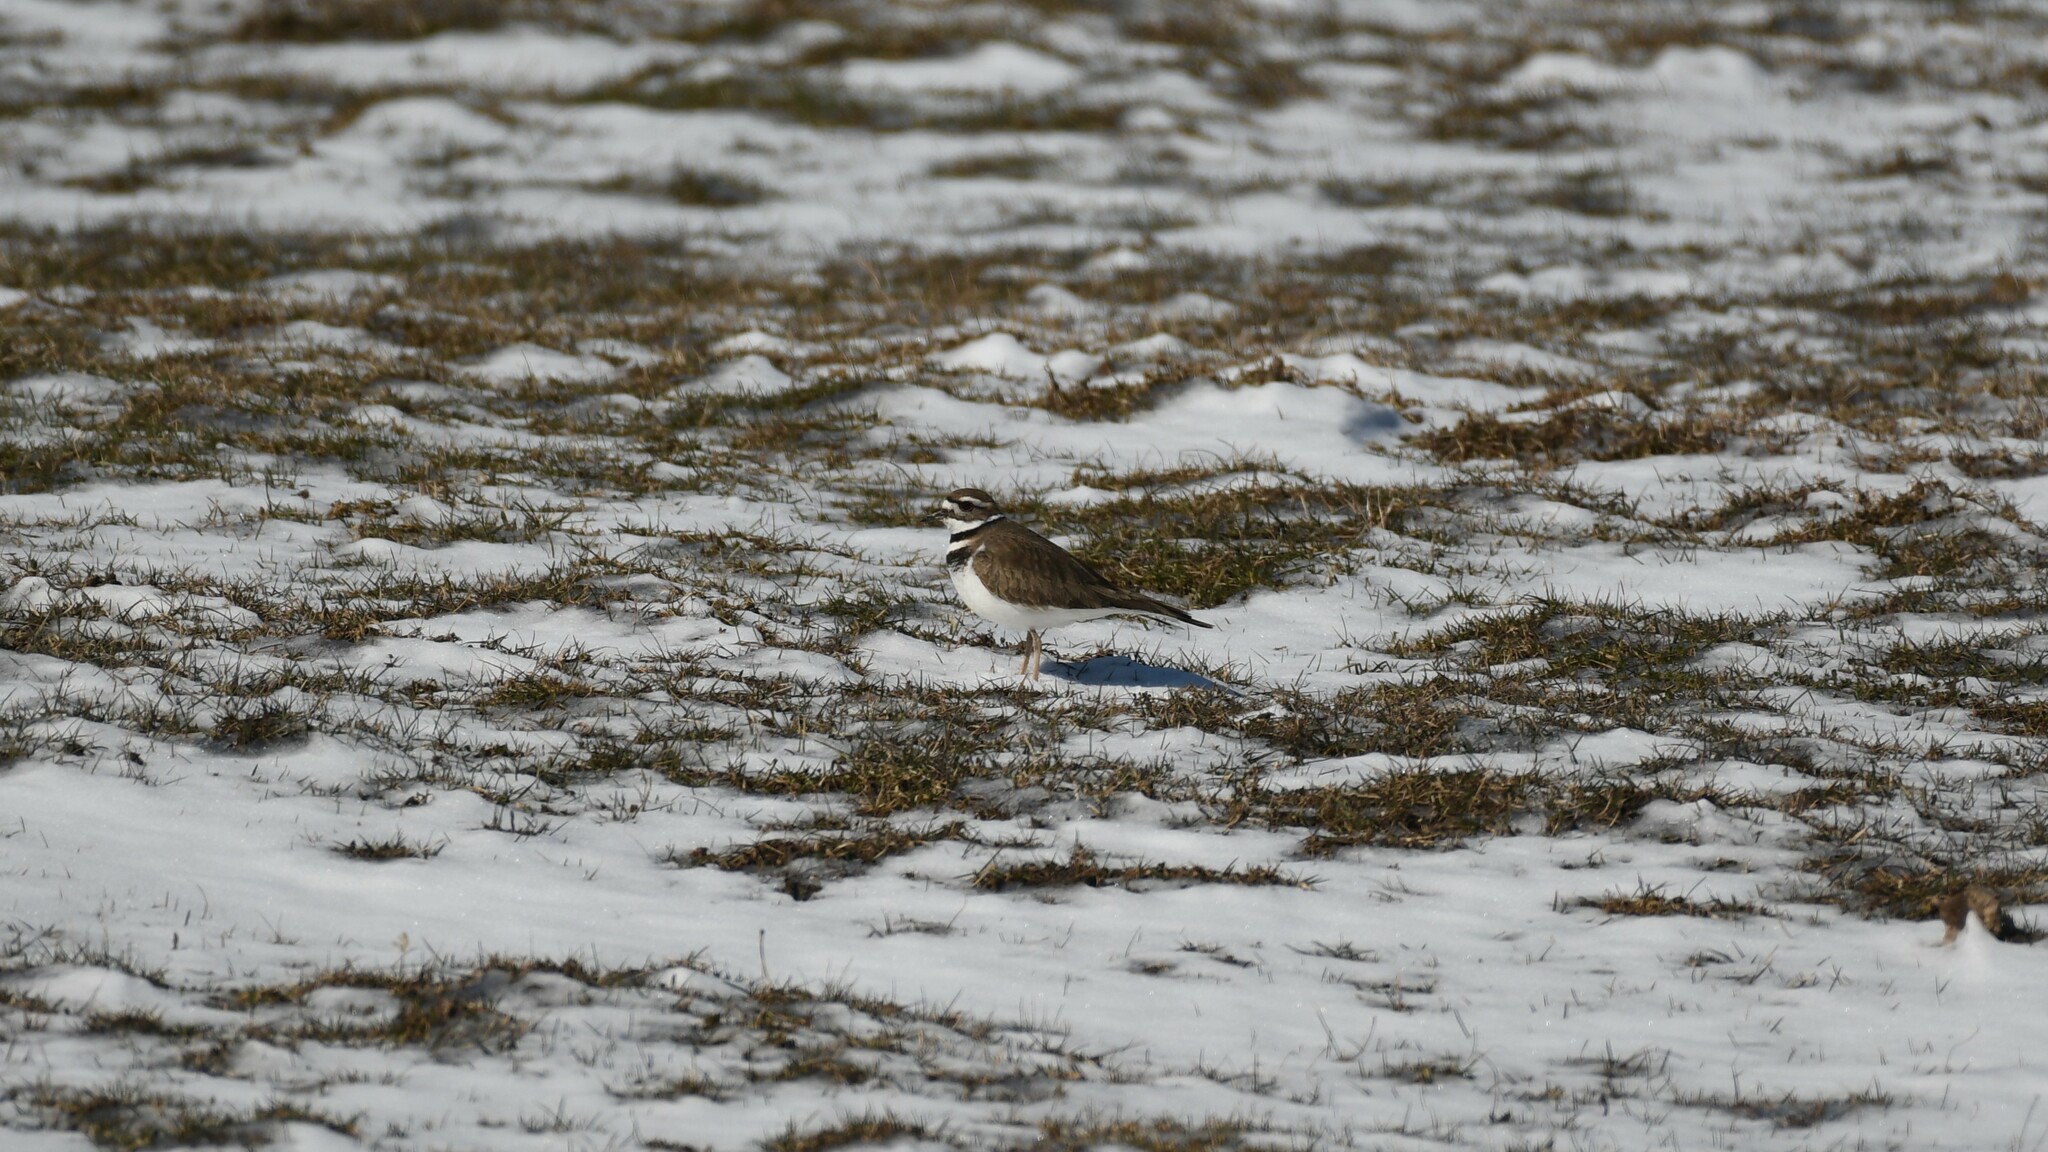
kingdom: Animalia
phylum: Chordata
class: Aves
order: Charadriiformes
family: Charadriidae
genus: Charadrius
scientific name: Charadrius vociferus
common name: Killdeer
